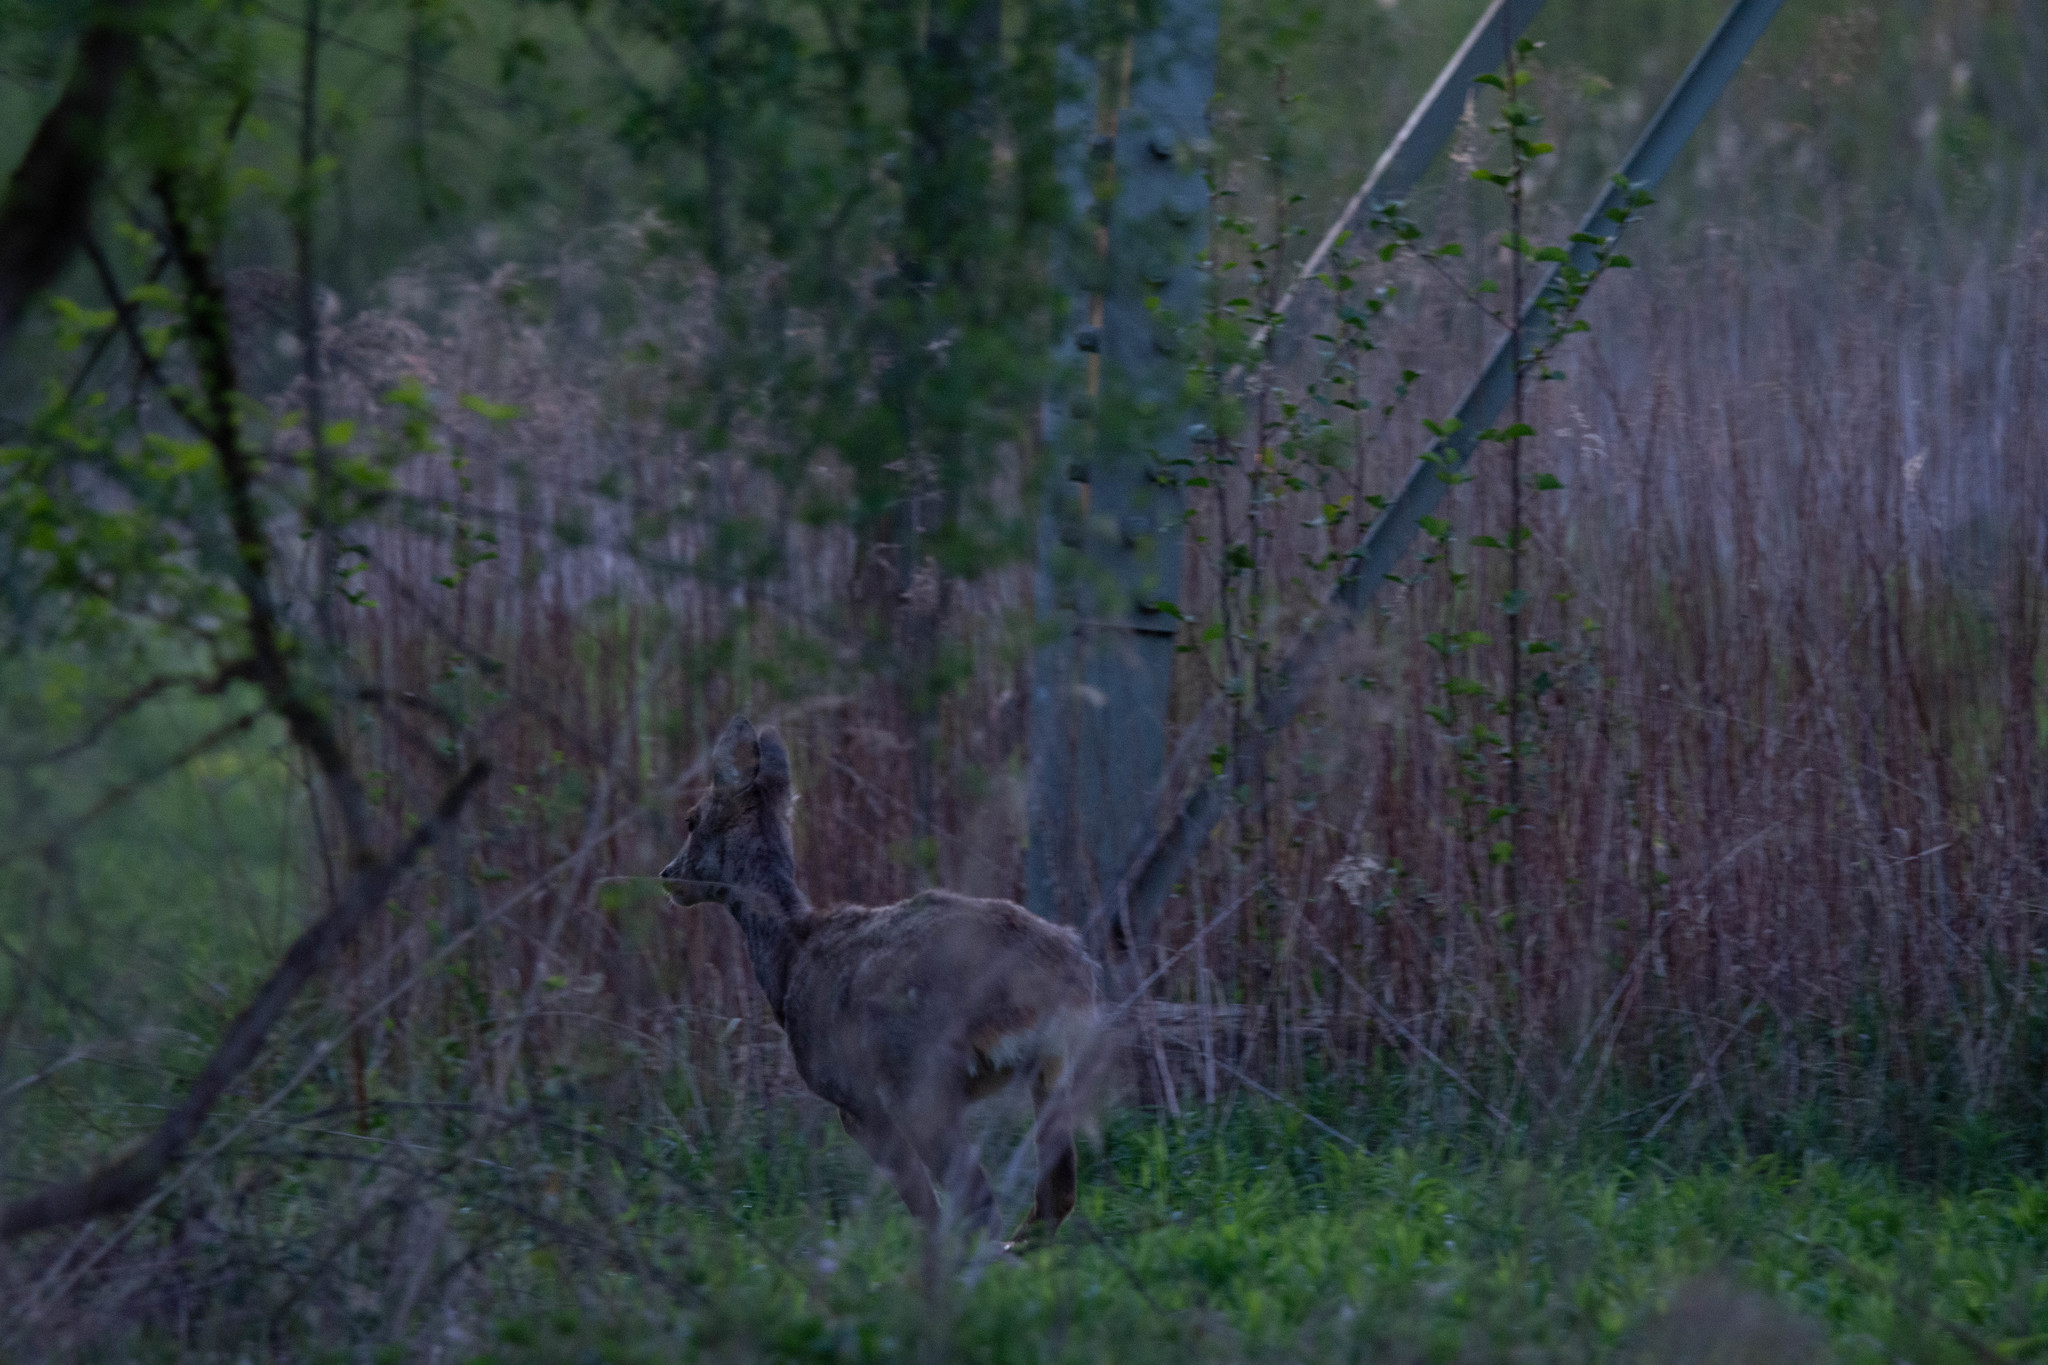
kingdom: Animalia
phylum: Chordata
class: Mammalia
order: Artiodactyla
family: Cervidae
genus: Capreolus
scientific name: Capreolus capreolus
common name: Western roe deer
